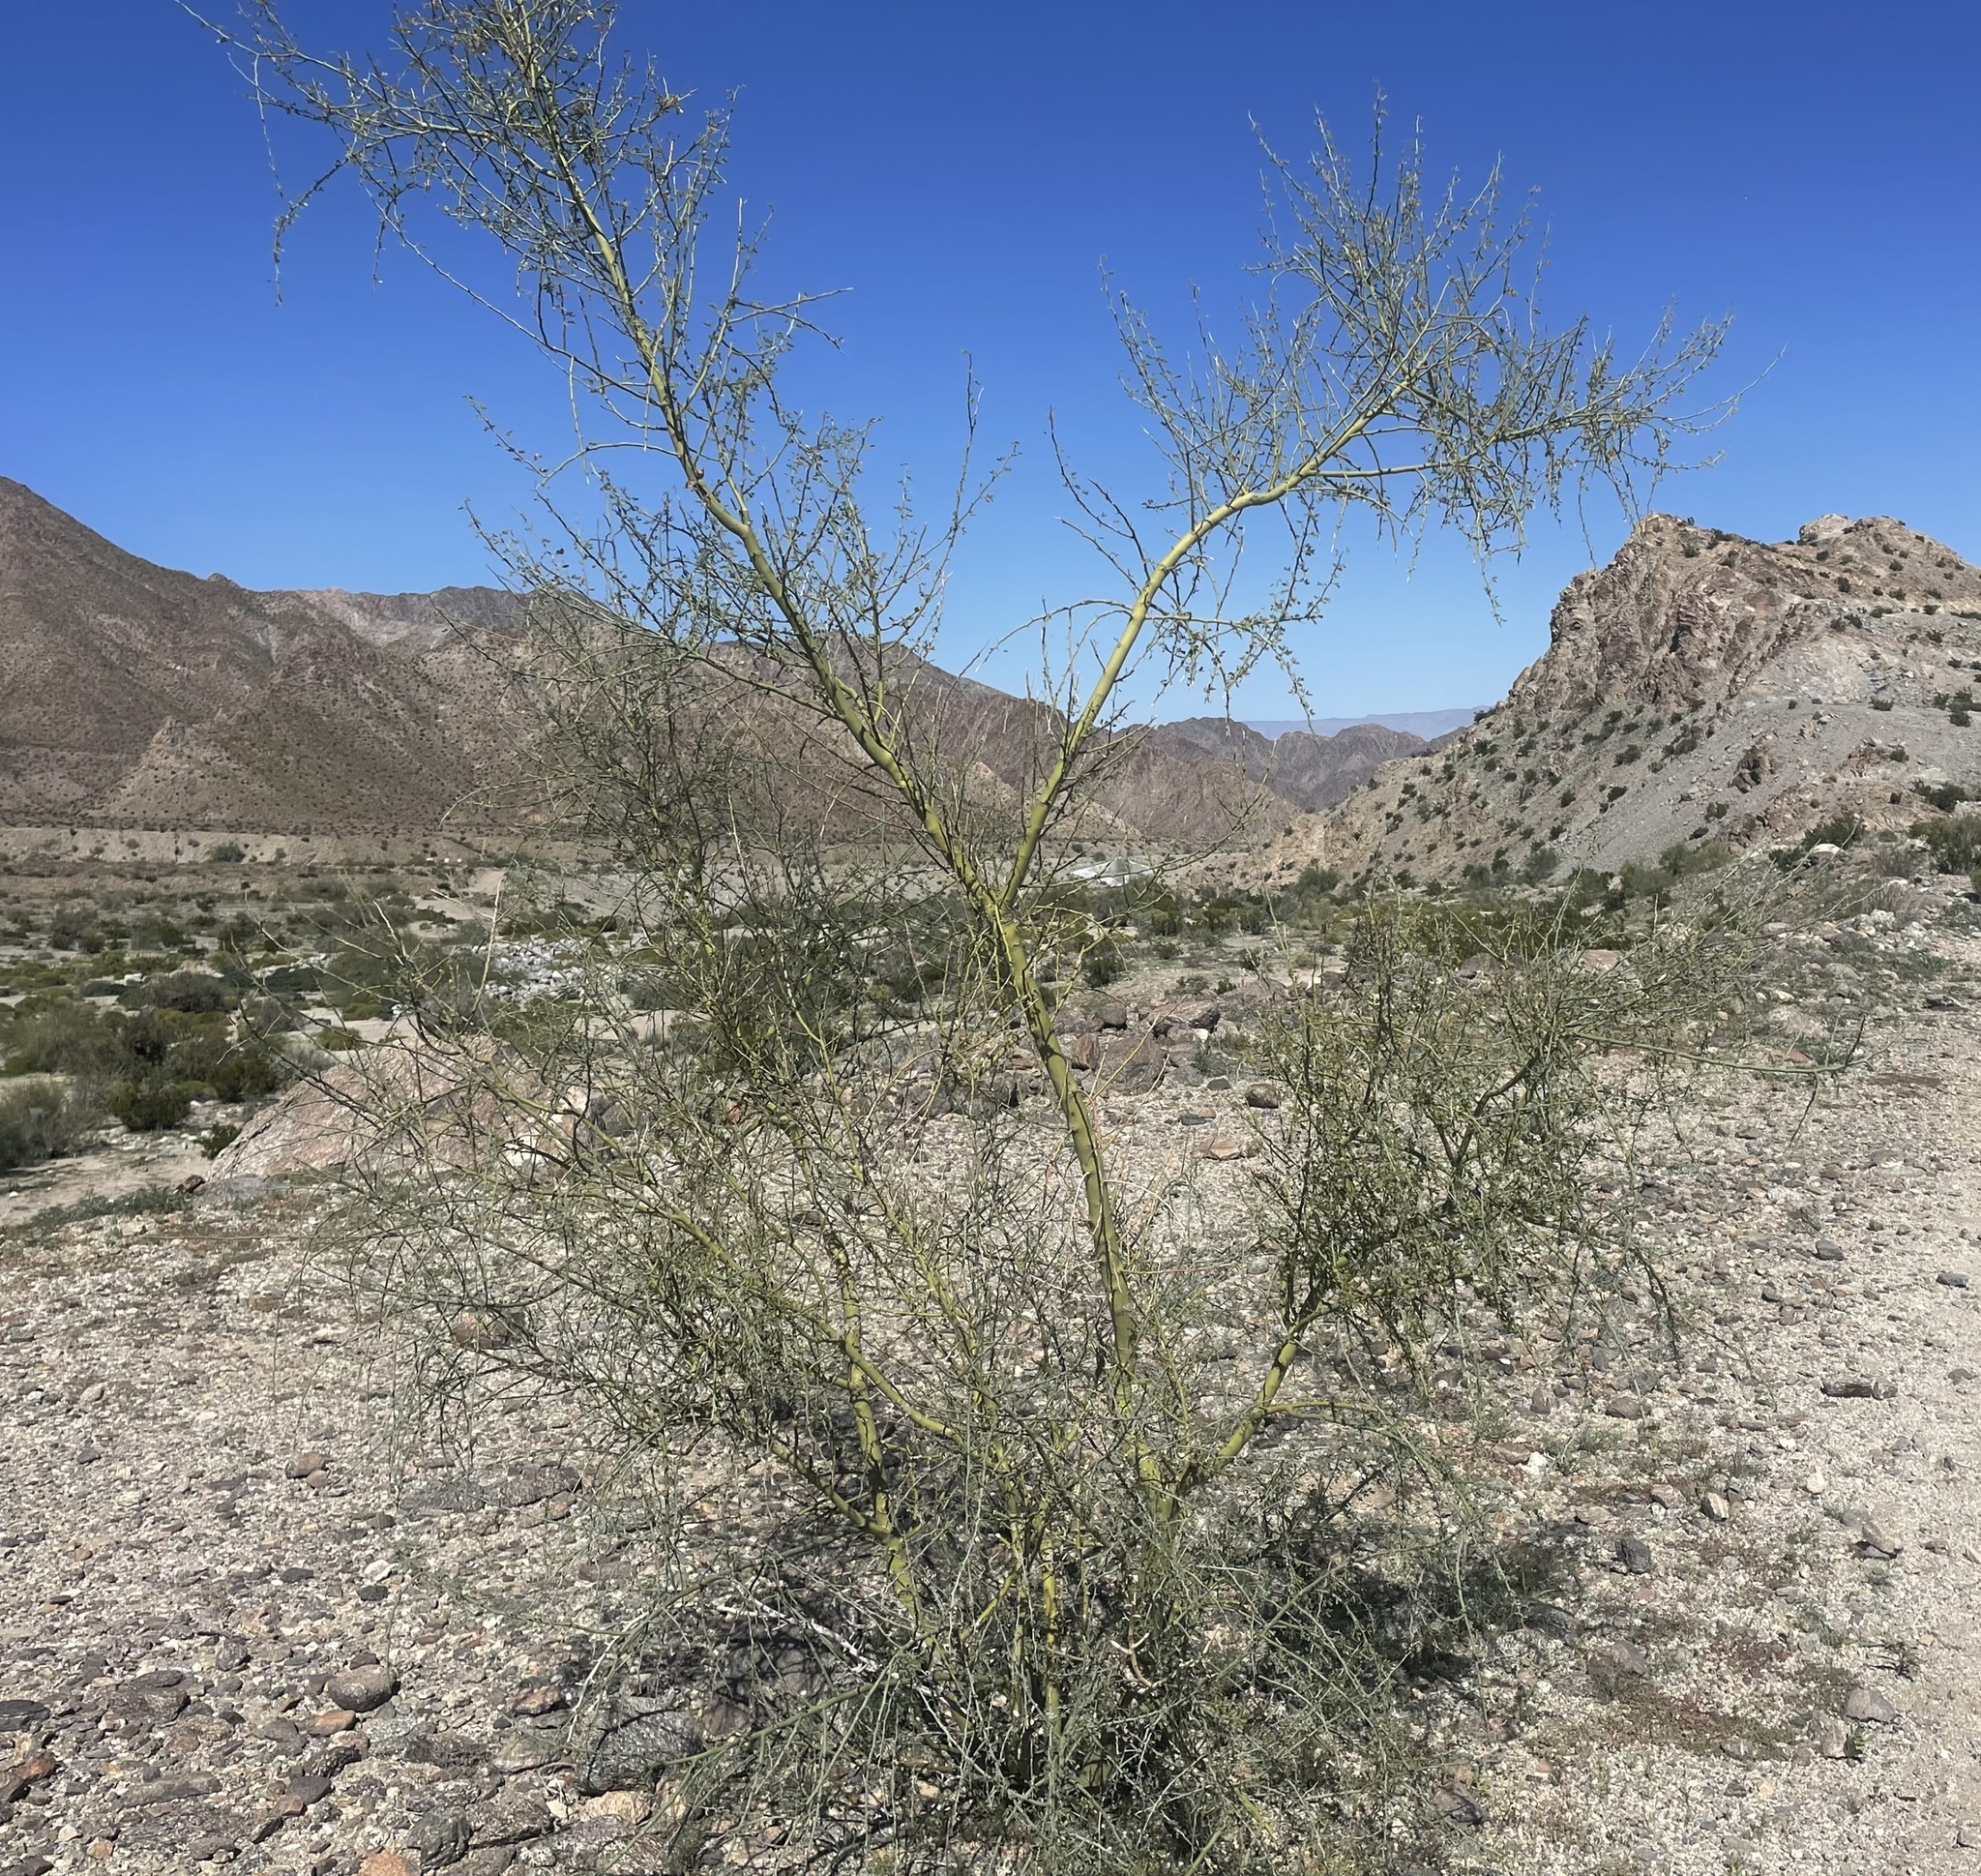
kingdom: Plantae
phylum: Tracheophyta
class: Magnoliopsida
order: Fabales
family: Fabaceae
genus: Parkinsonia
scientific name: Parkinsonia florida
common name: Blue paloverde
